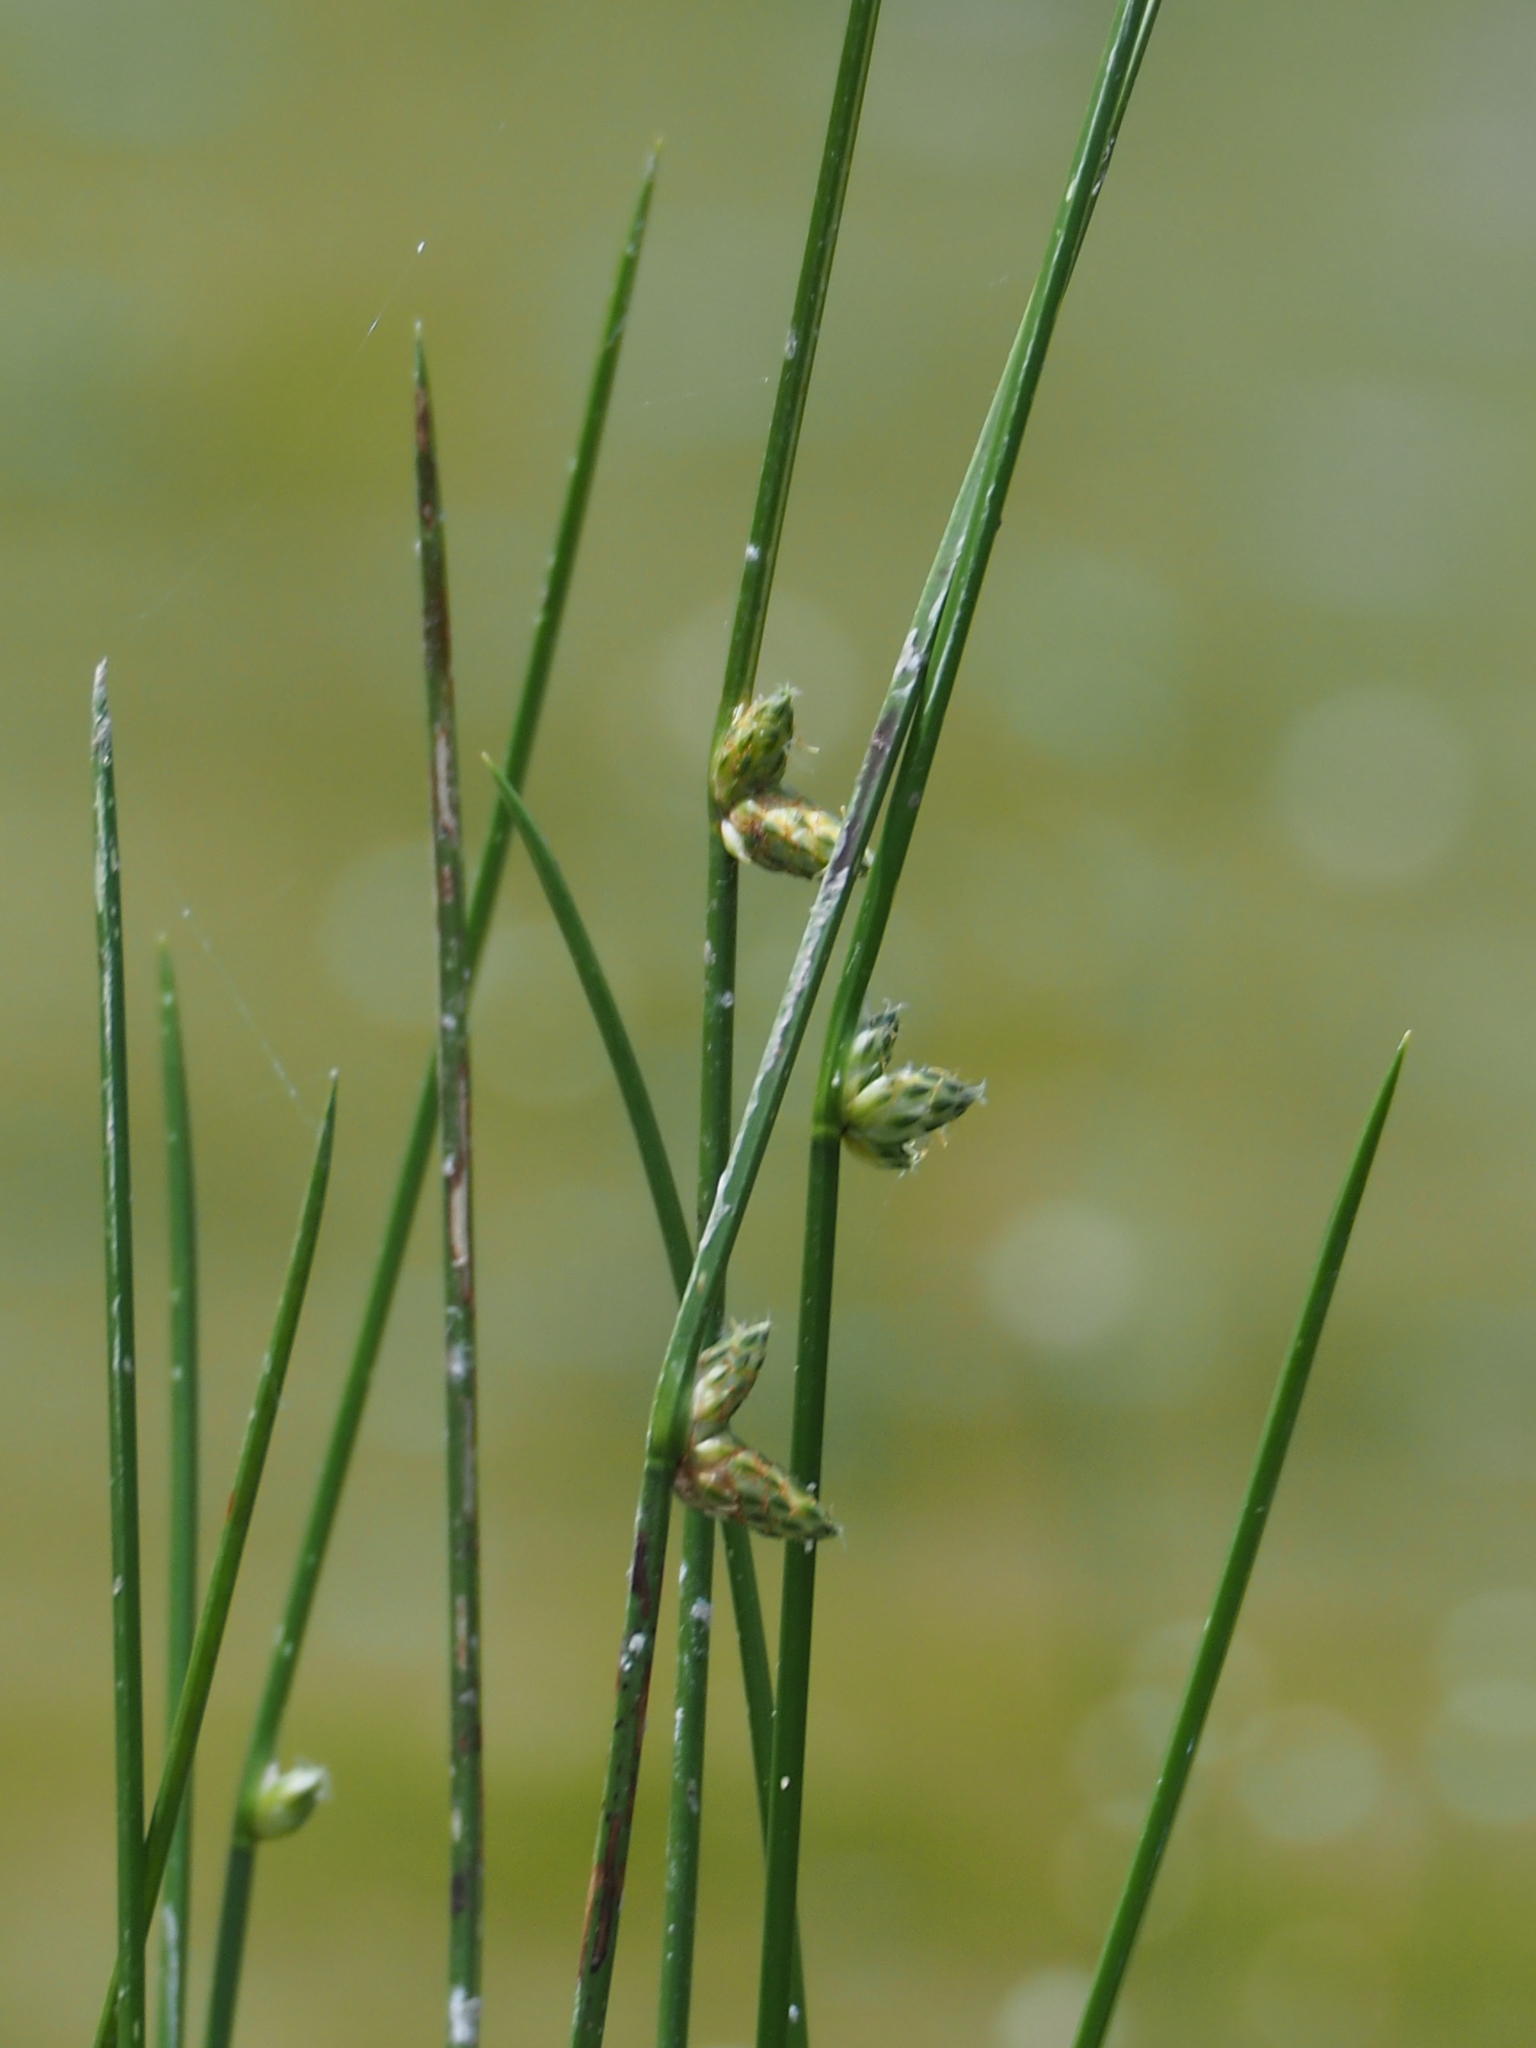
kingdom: Plantae
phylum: Tracheophyta
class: Liliopsida
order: Poales
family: Cyperaceae
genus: Schoenoplectiella
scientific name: Schoenoplectiella juncoides
